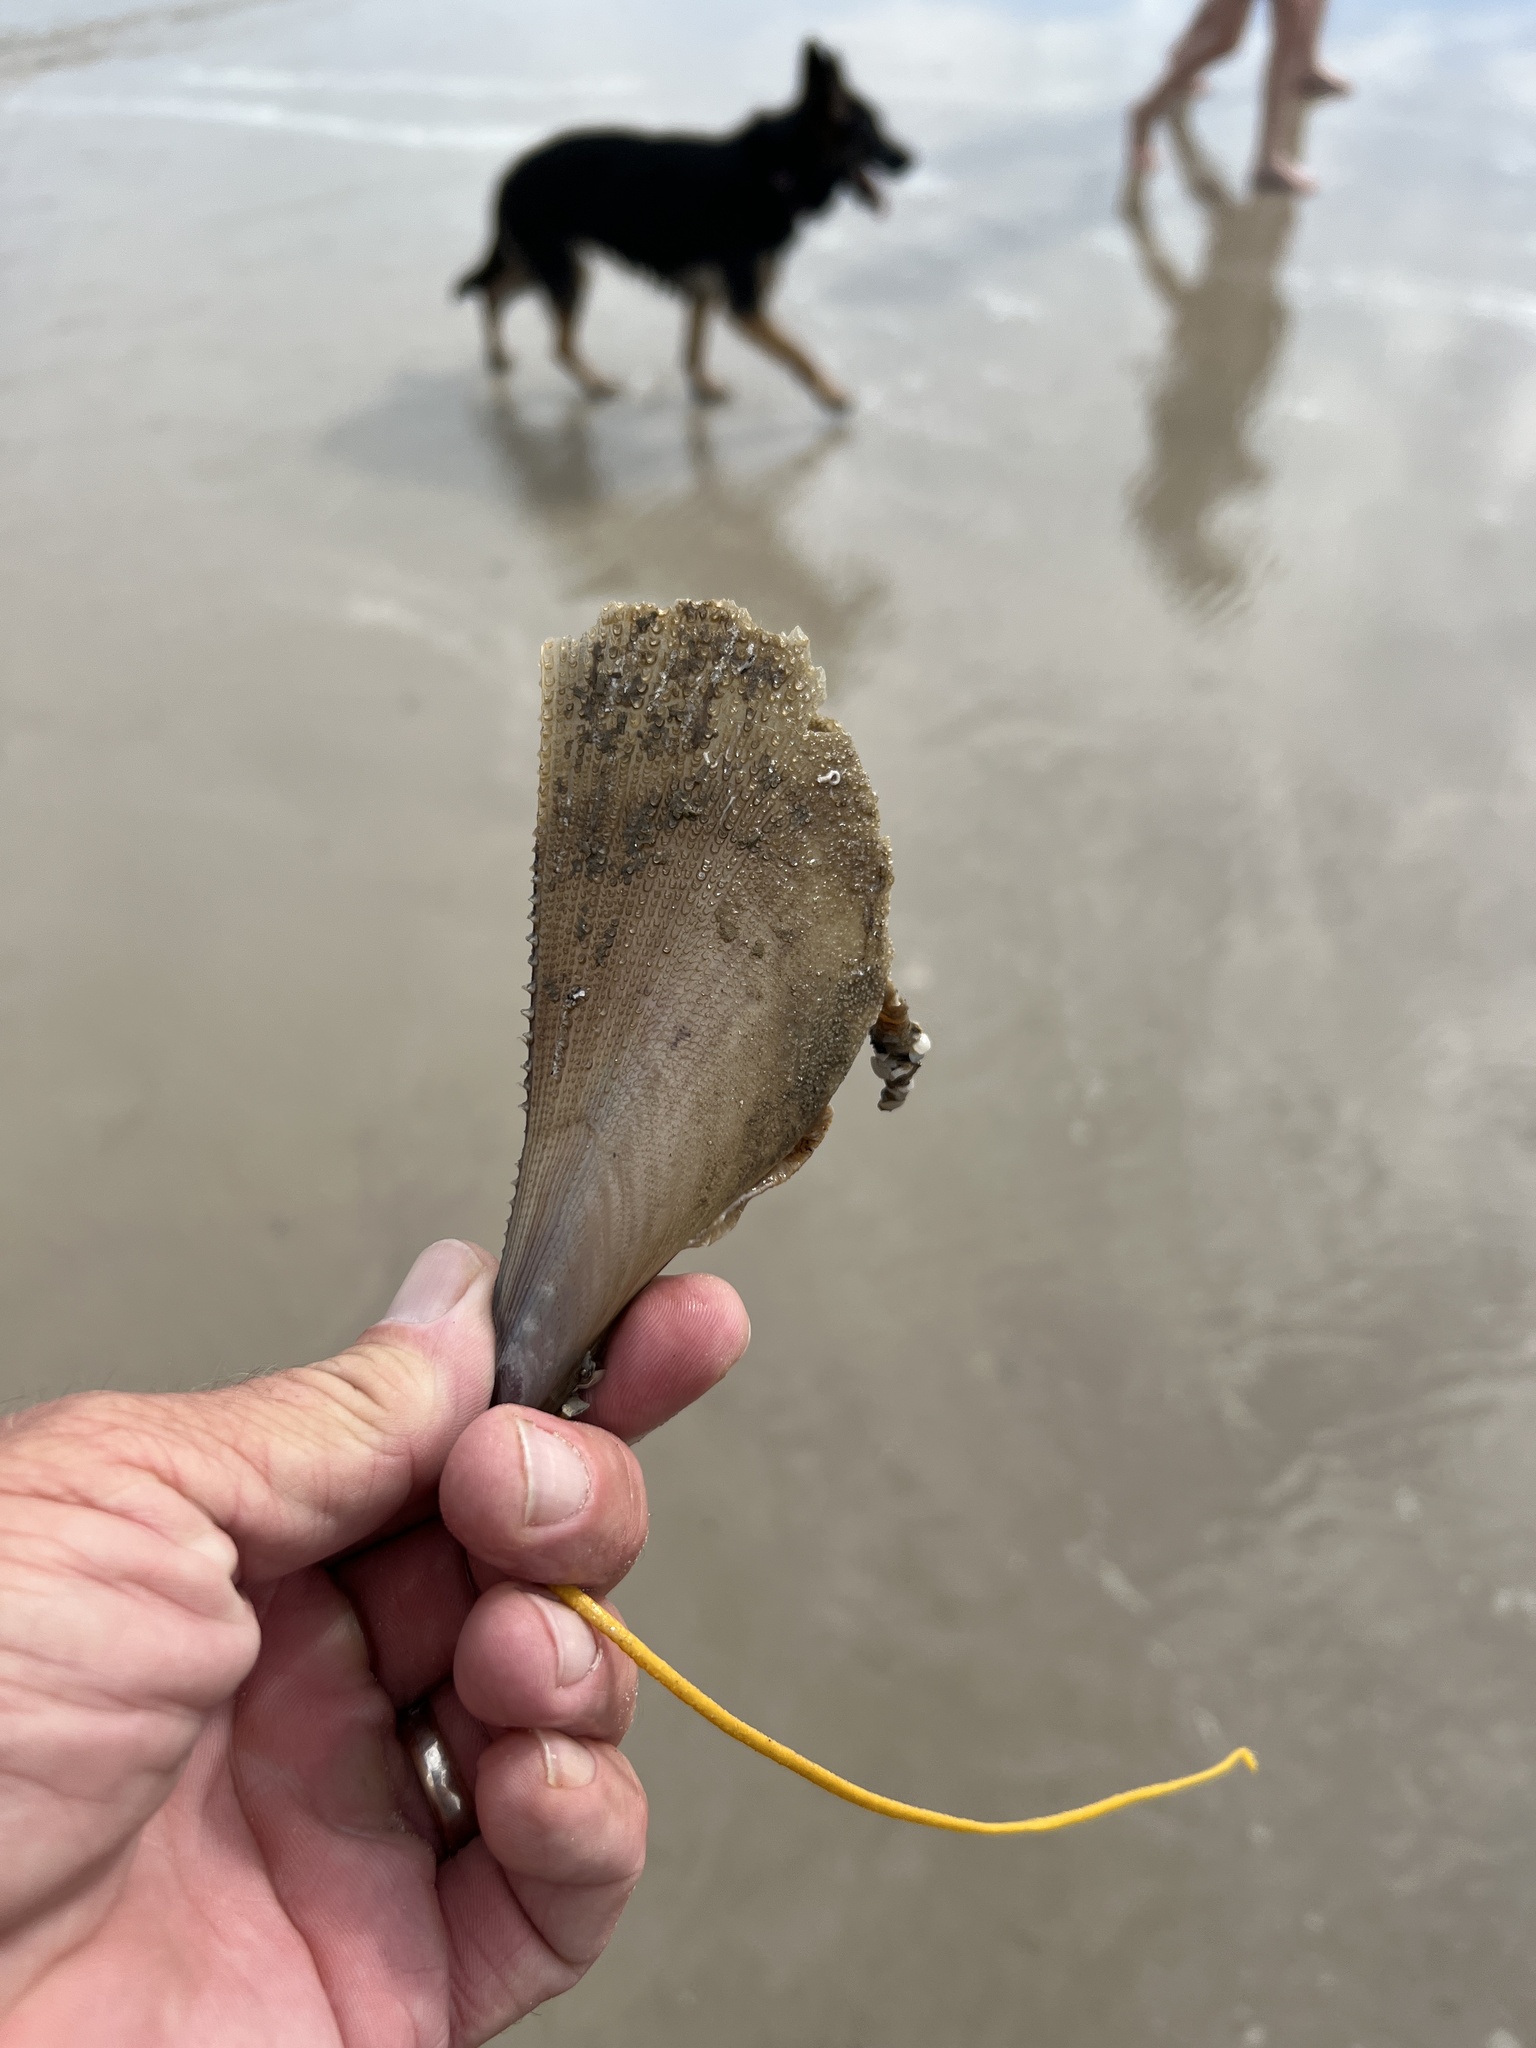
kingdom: Animalia
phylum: Mollusca
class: Bivalvia
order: Ostreida
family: Pinnidae
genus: Atrina
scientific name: Atrina serrata
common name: Saw-toothed penshell
